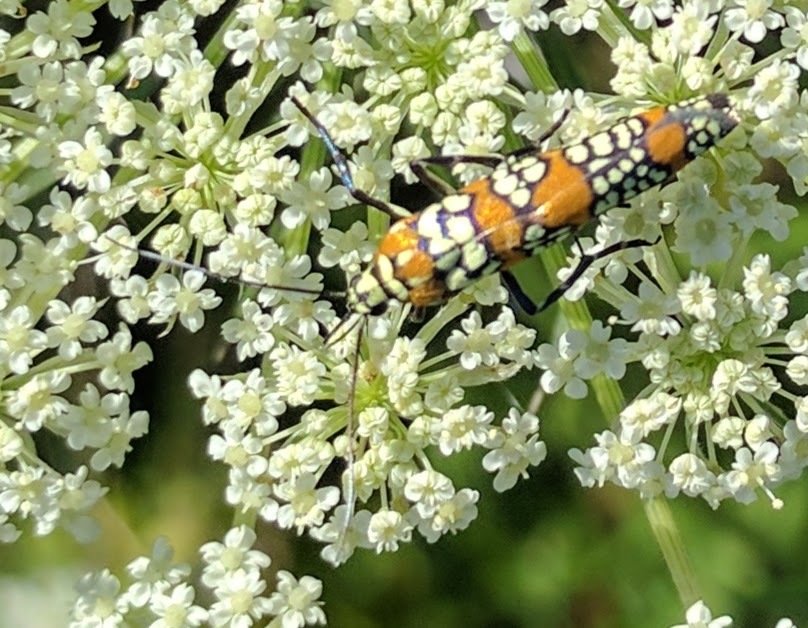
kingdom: Animalia
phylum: Arthropoda
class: Insecta
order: Lepidoptera
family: Attevidae
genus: Atteva
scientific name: Atteva punctella
